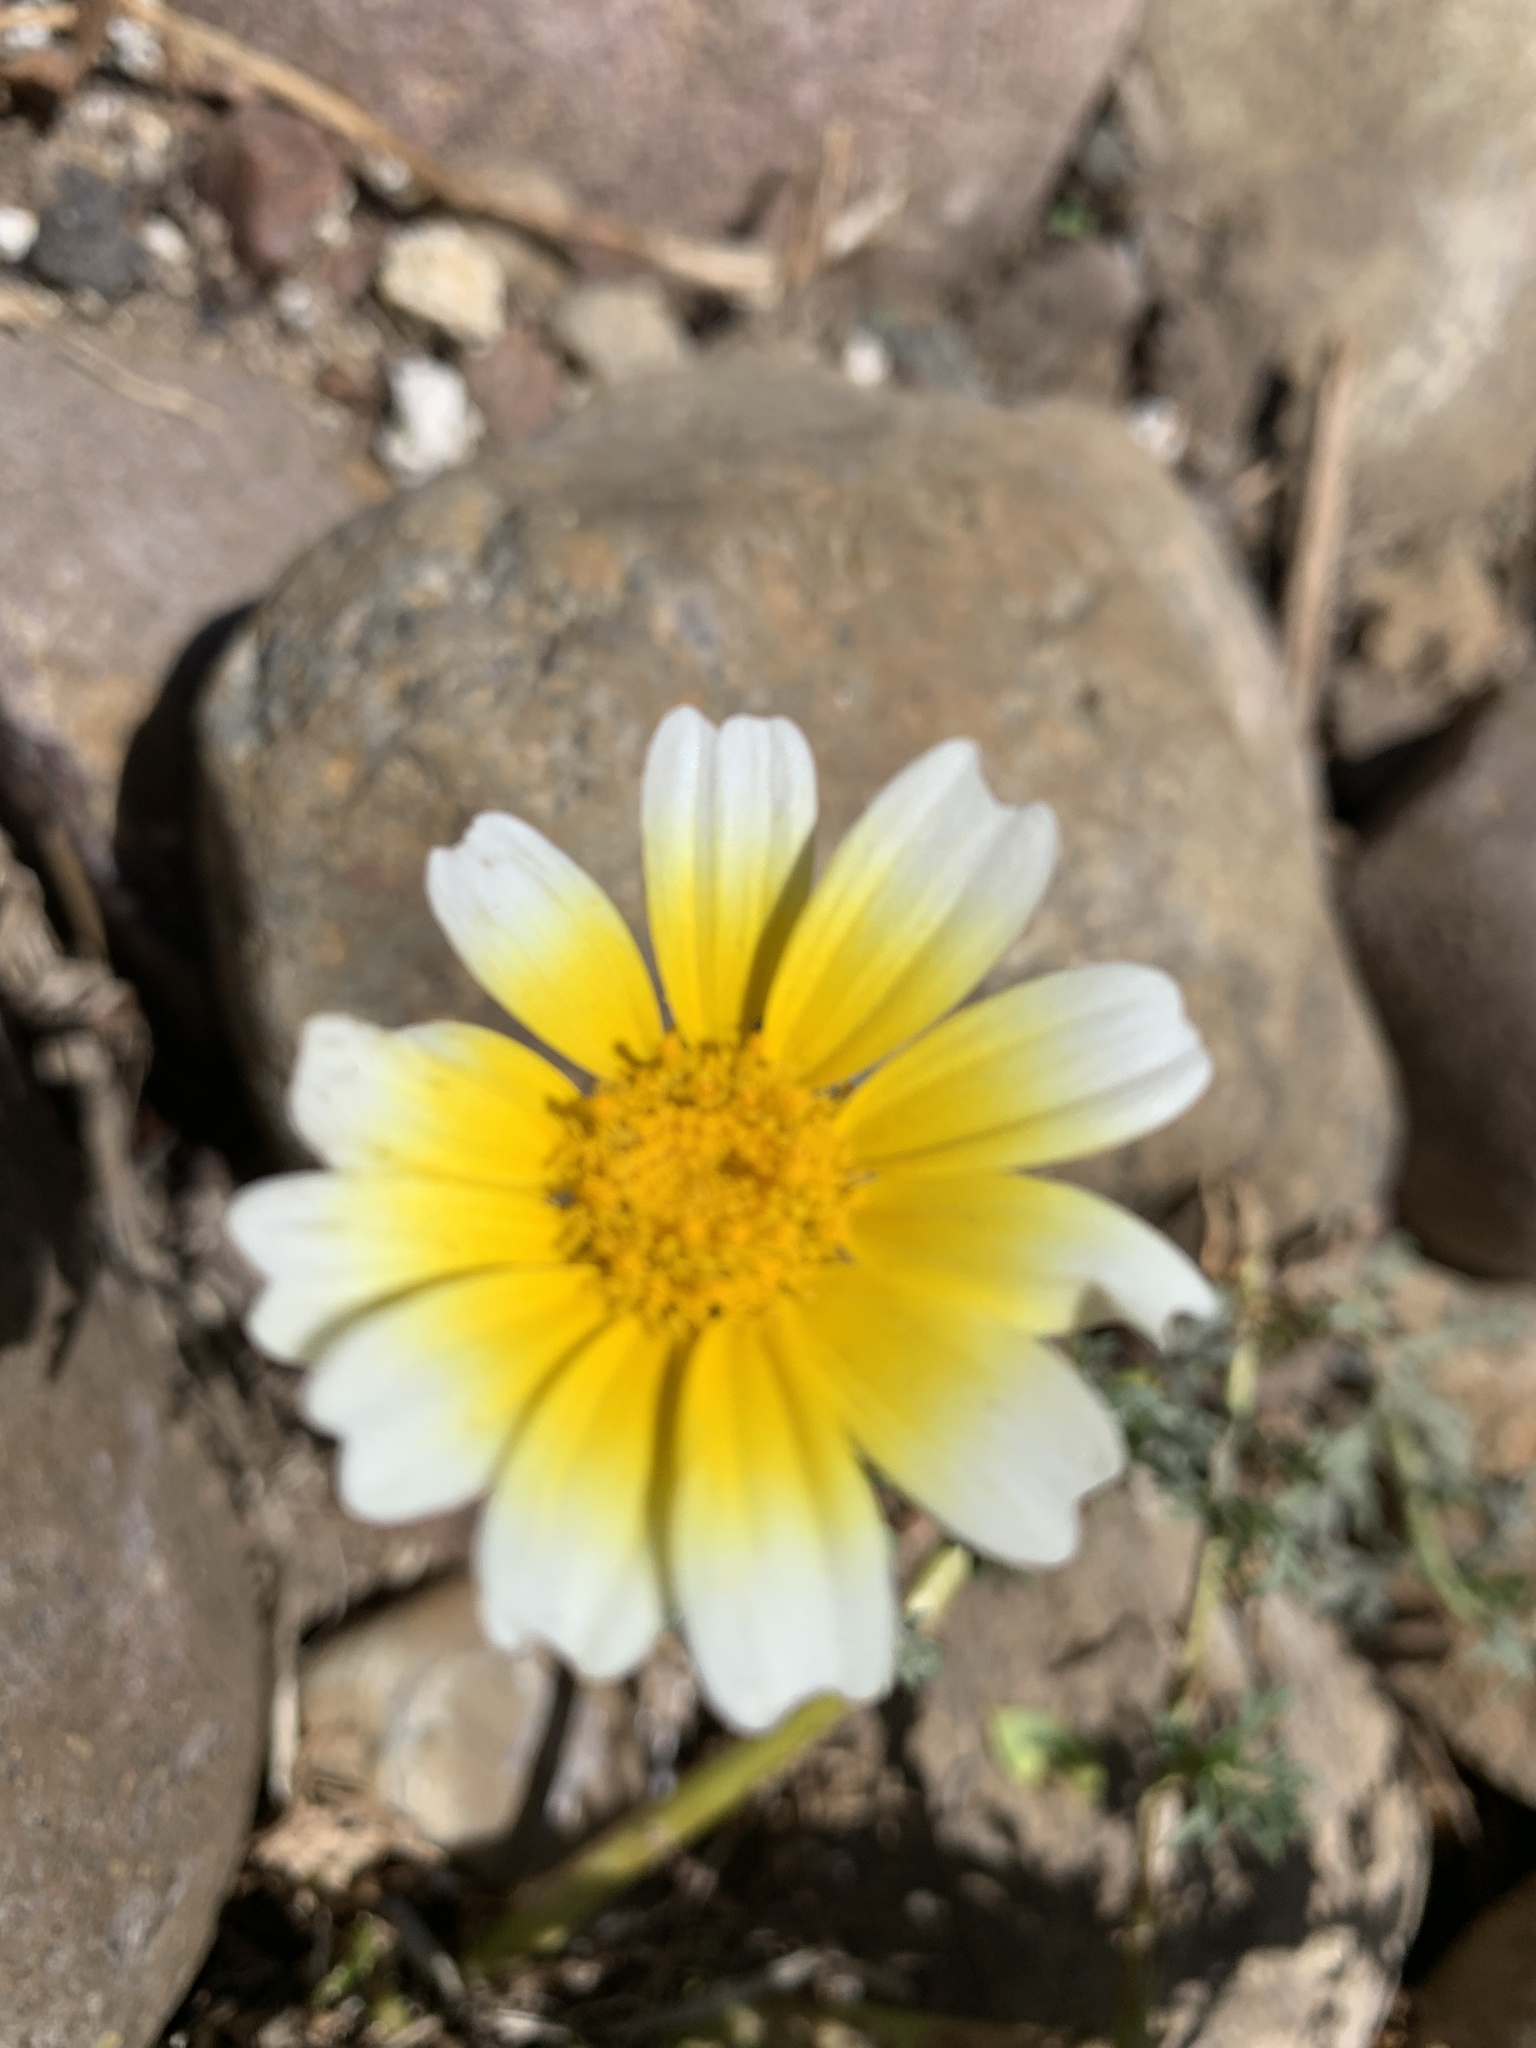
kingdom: Plantae
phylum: Tracheophyta
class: Magnoliopsida
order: Asterales
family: Asteraceae
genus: Glebionis
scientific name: Glebionis coronaria
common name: Crowndaisy
